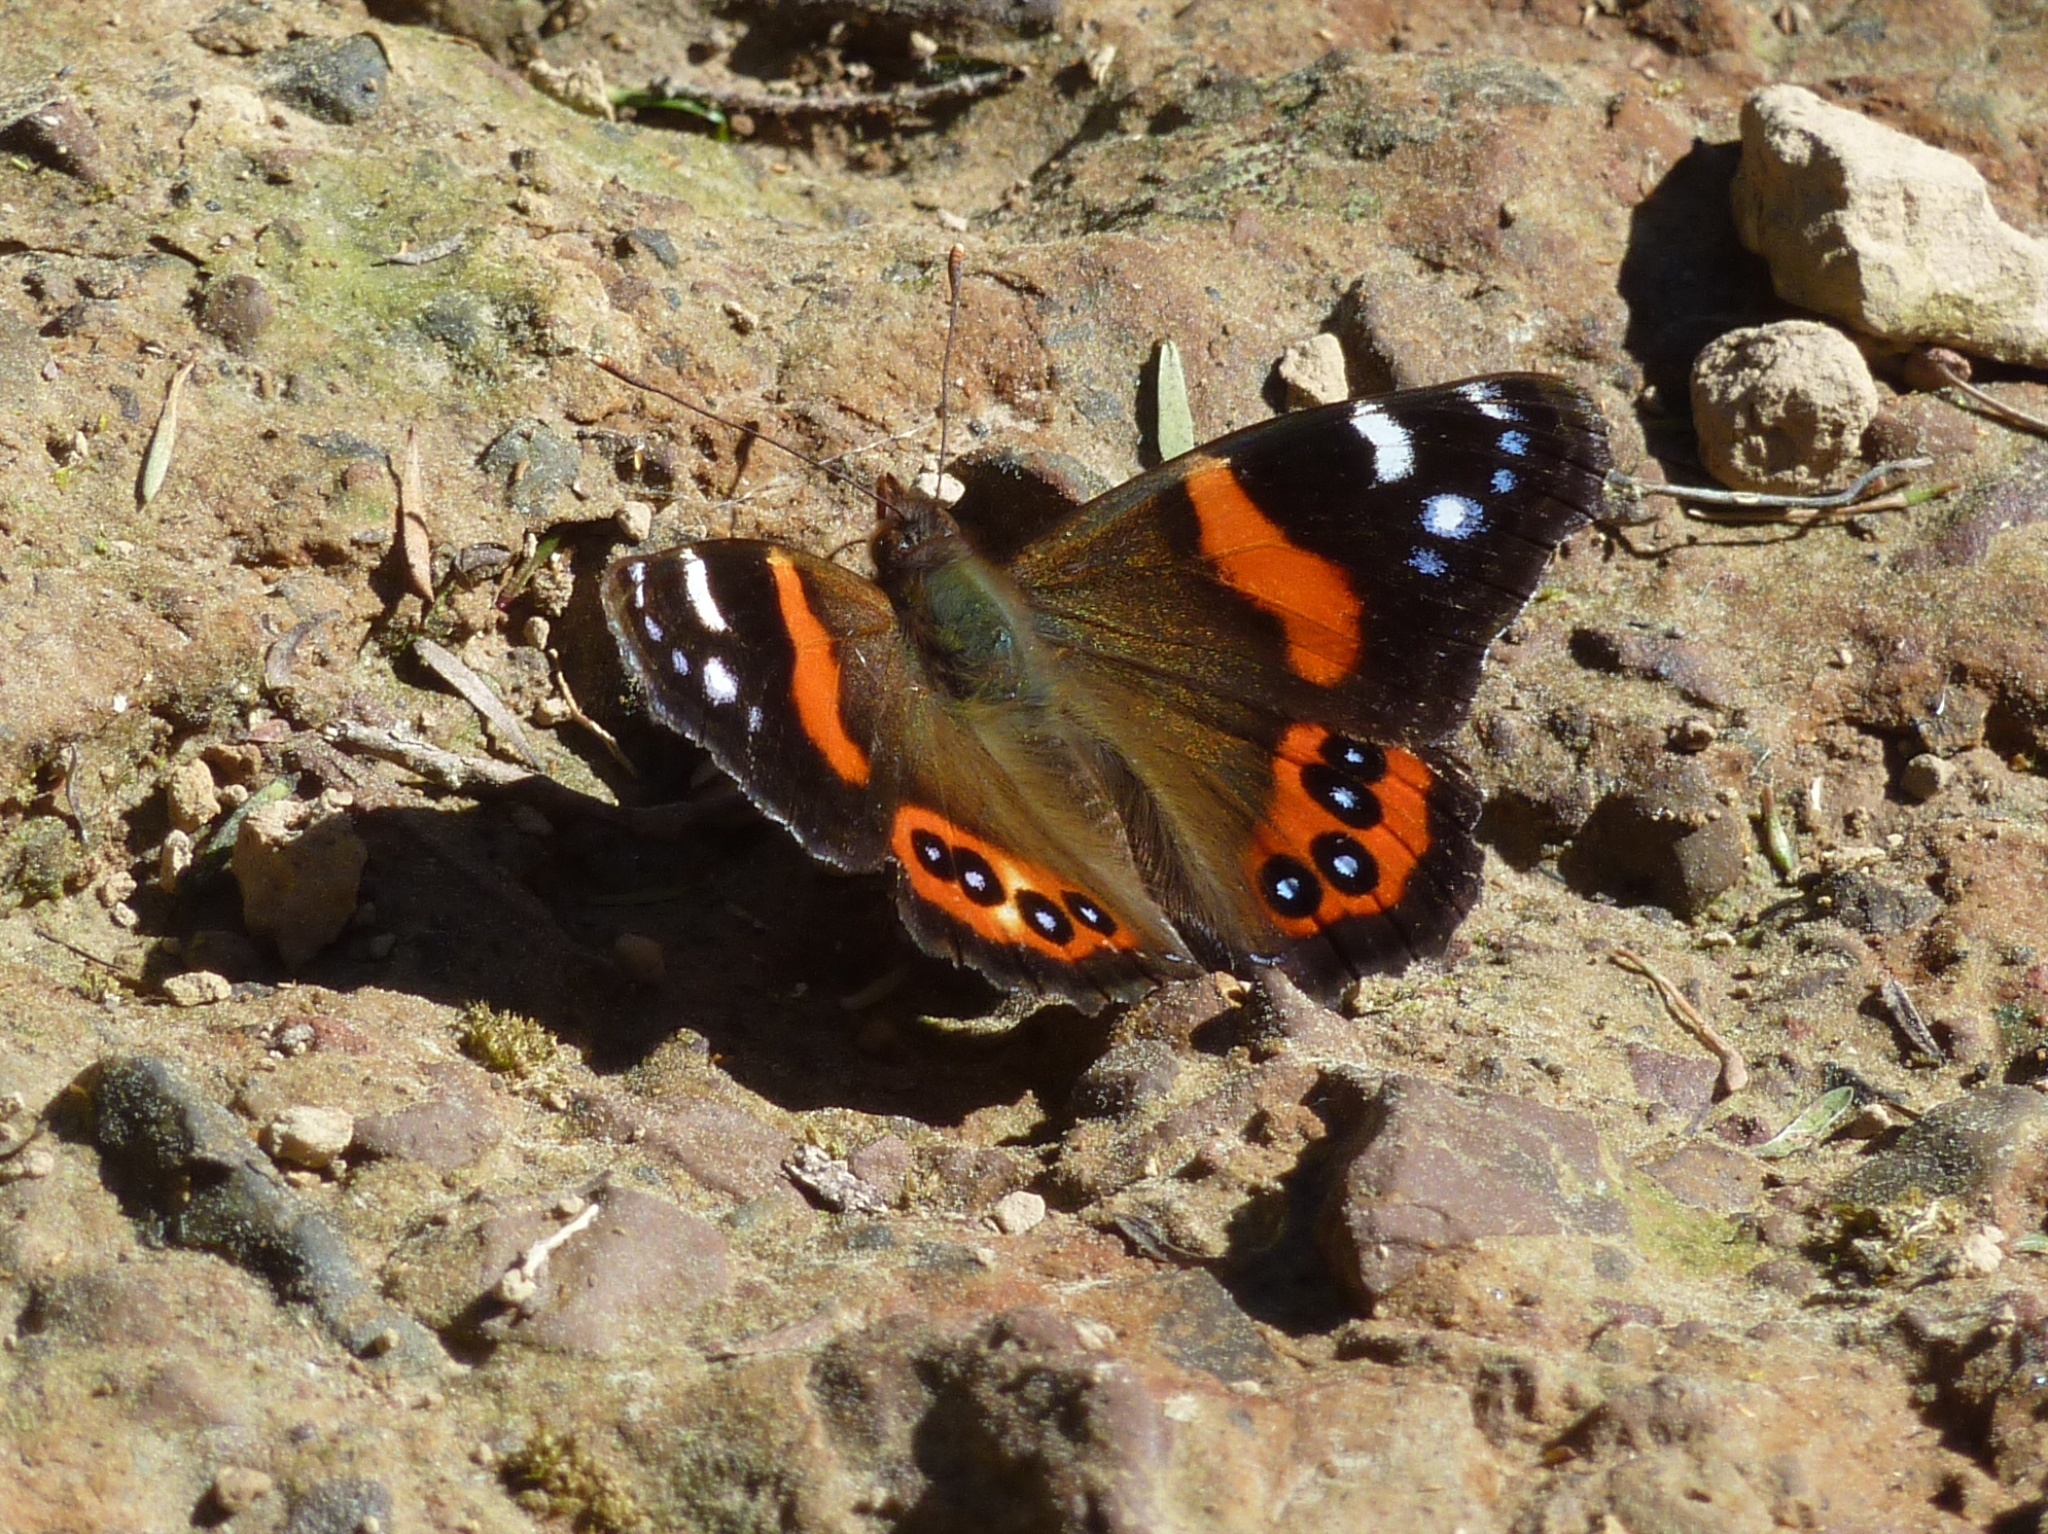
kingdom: Animalia
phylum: Arthropoda
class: Insecta
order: Lepidoptera
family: Nymphalidae
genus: Vanessa
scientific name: Vanessa gonerilla
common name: New zealand red admiral
